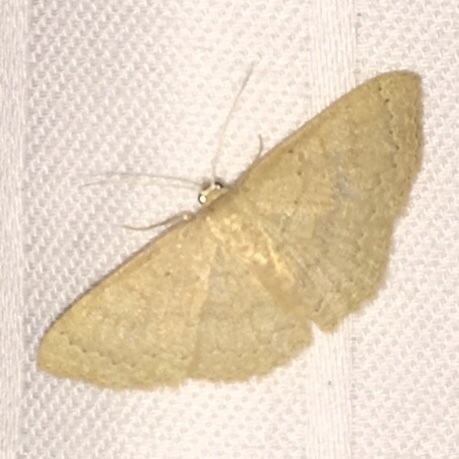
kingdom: Animalia
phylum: Arthropoda
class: Insecta
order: Lepidoptera
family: Geometridae
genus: Pleuroprucha
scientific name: Pleuroprucha insulsaria
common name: Common tan wave
